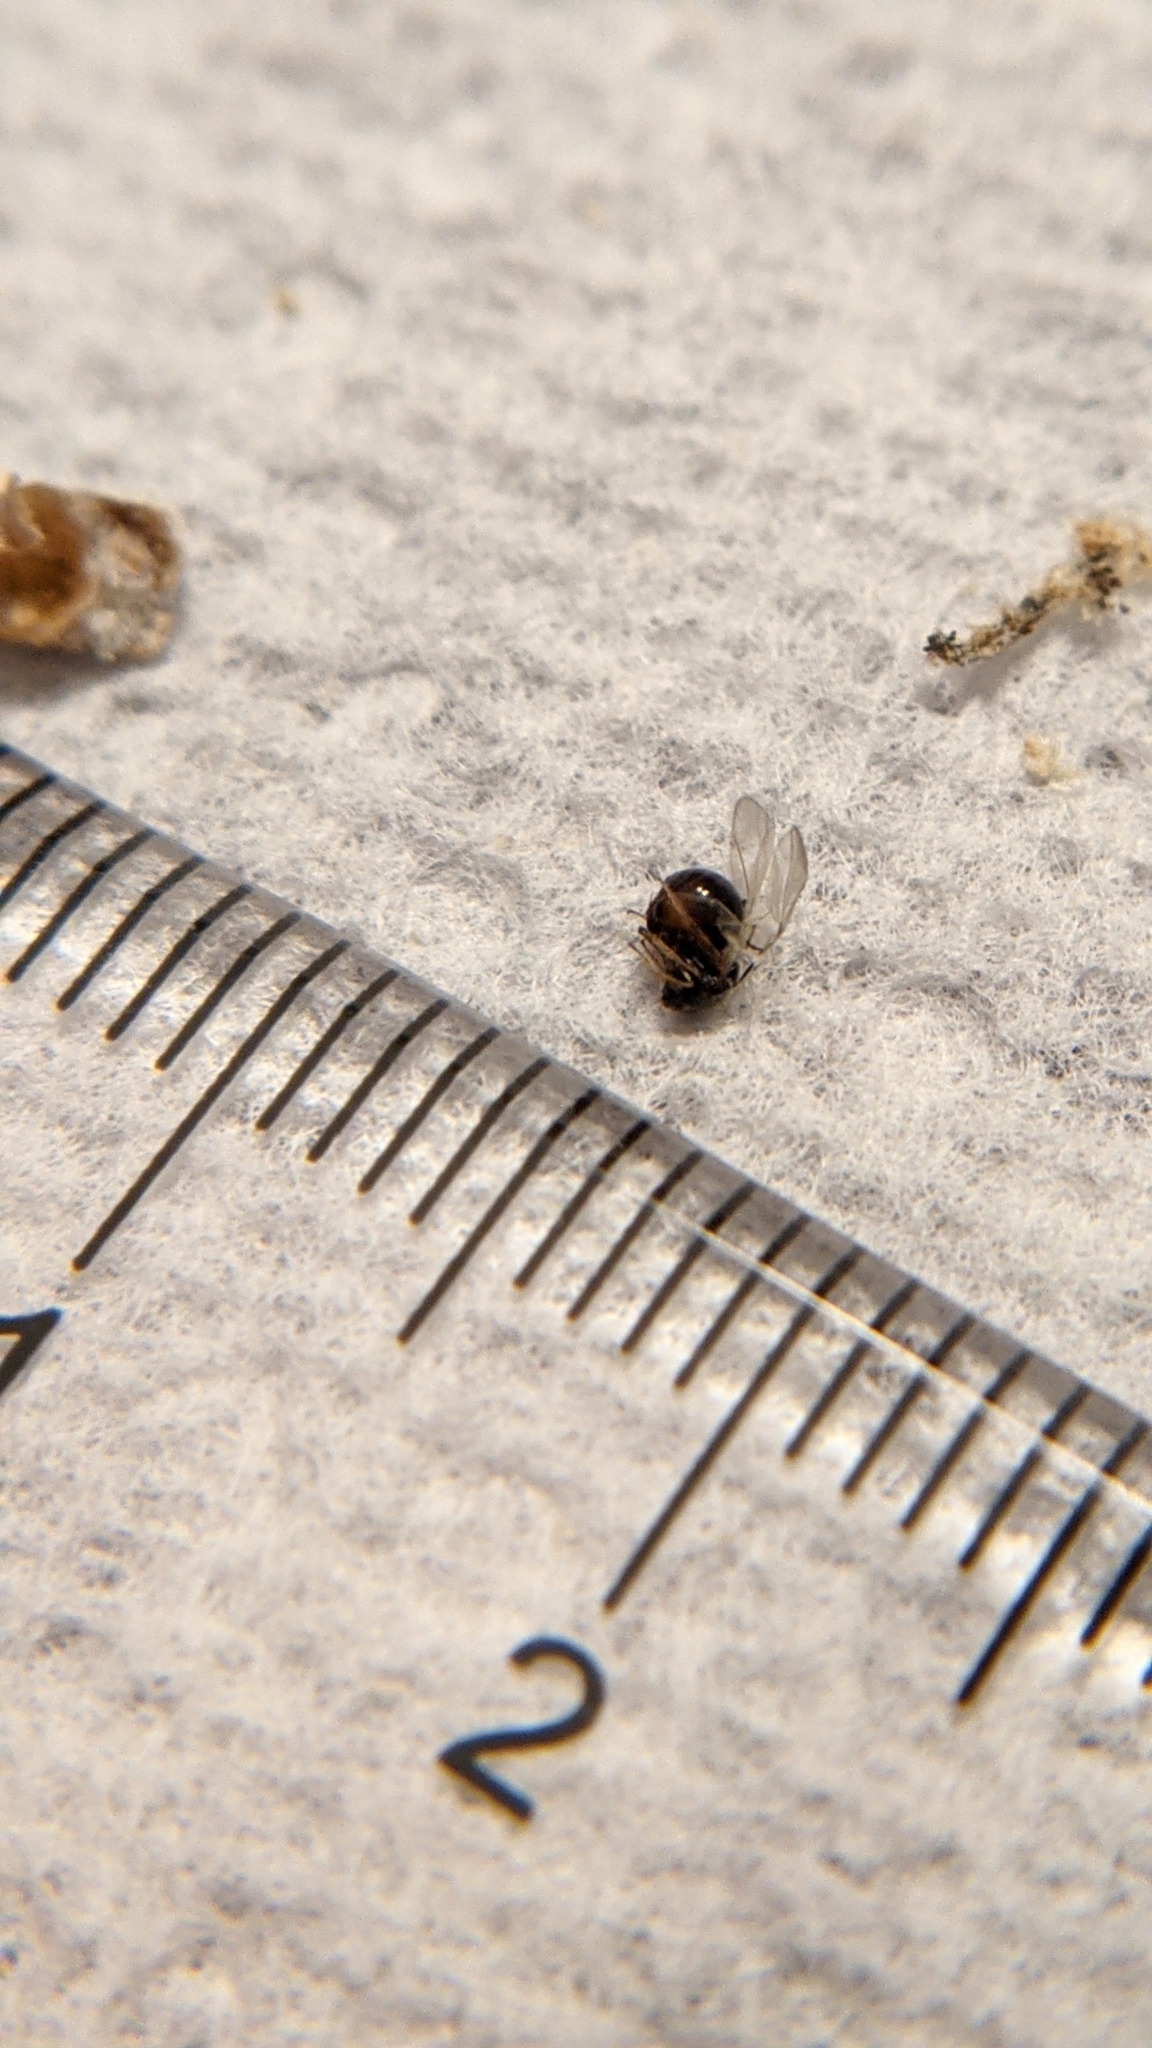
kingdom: Animalia
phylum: Arthropoda
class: Insecta
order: Hymenoptera
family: Cynipidae
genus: Andricus
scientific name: Andricus
